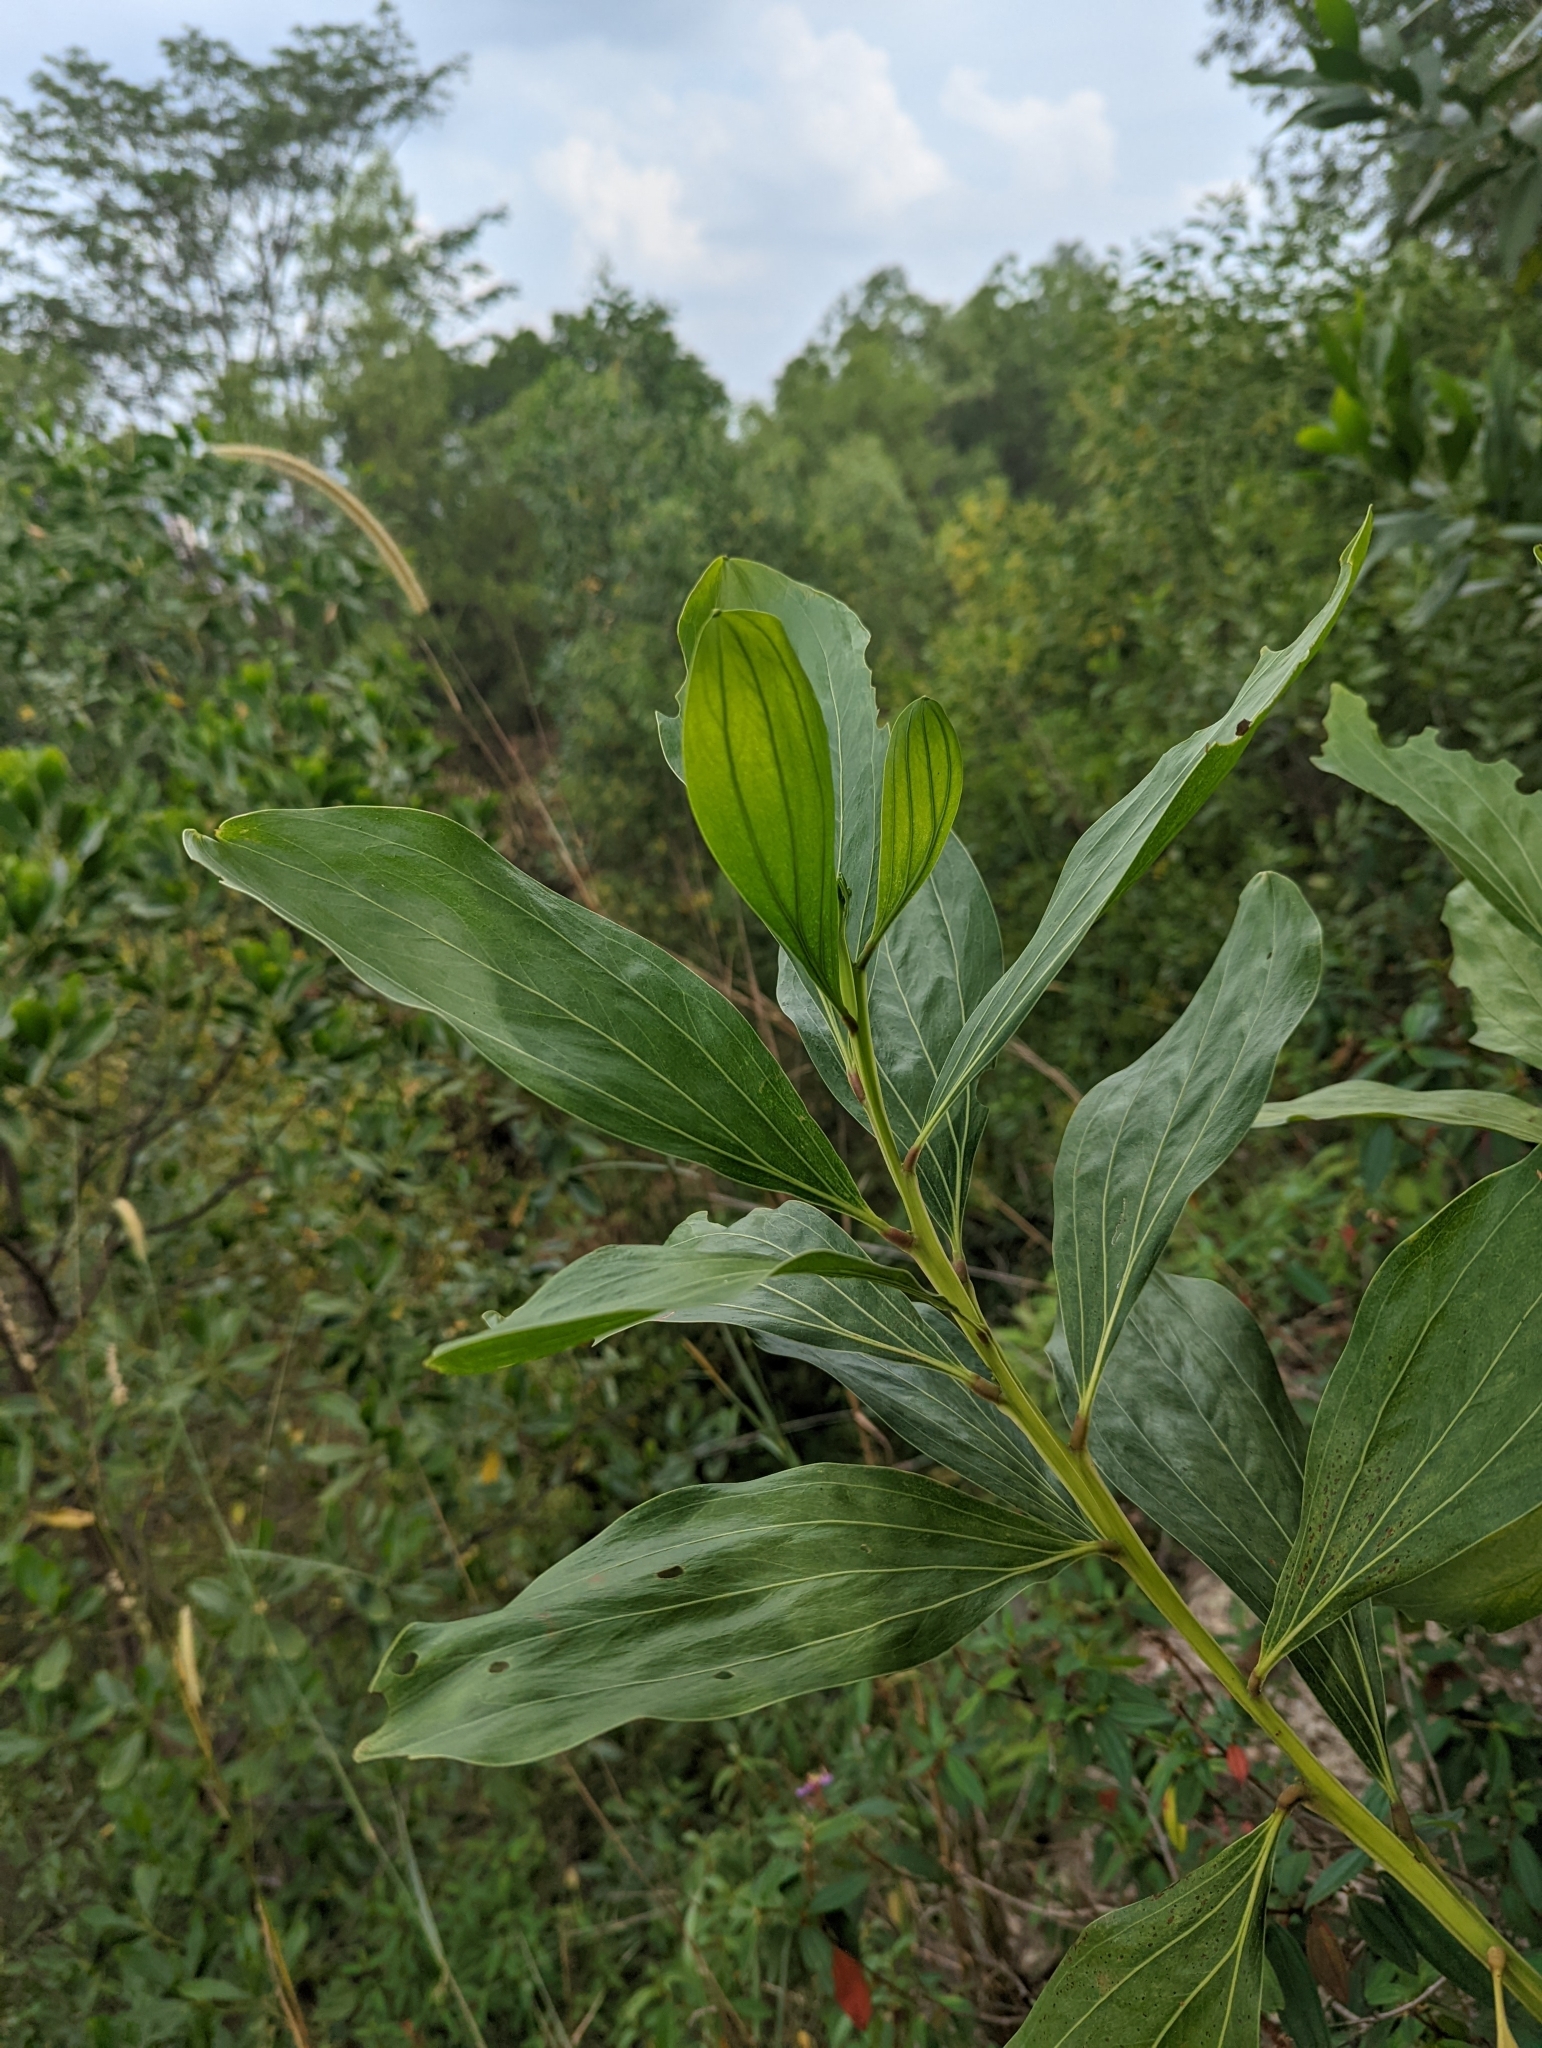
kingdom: Plantae
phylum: Tracheophyta
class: Magnoliopsida
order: Fabales
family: Fabaceae
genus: Acacia
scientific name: Acacia mangium
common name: Black wattle
